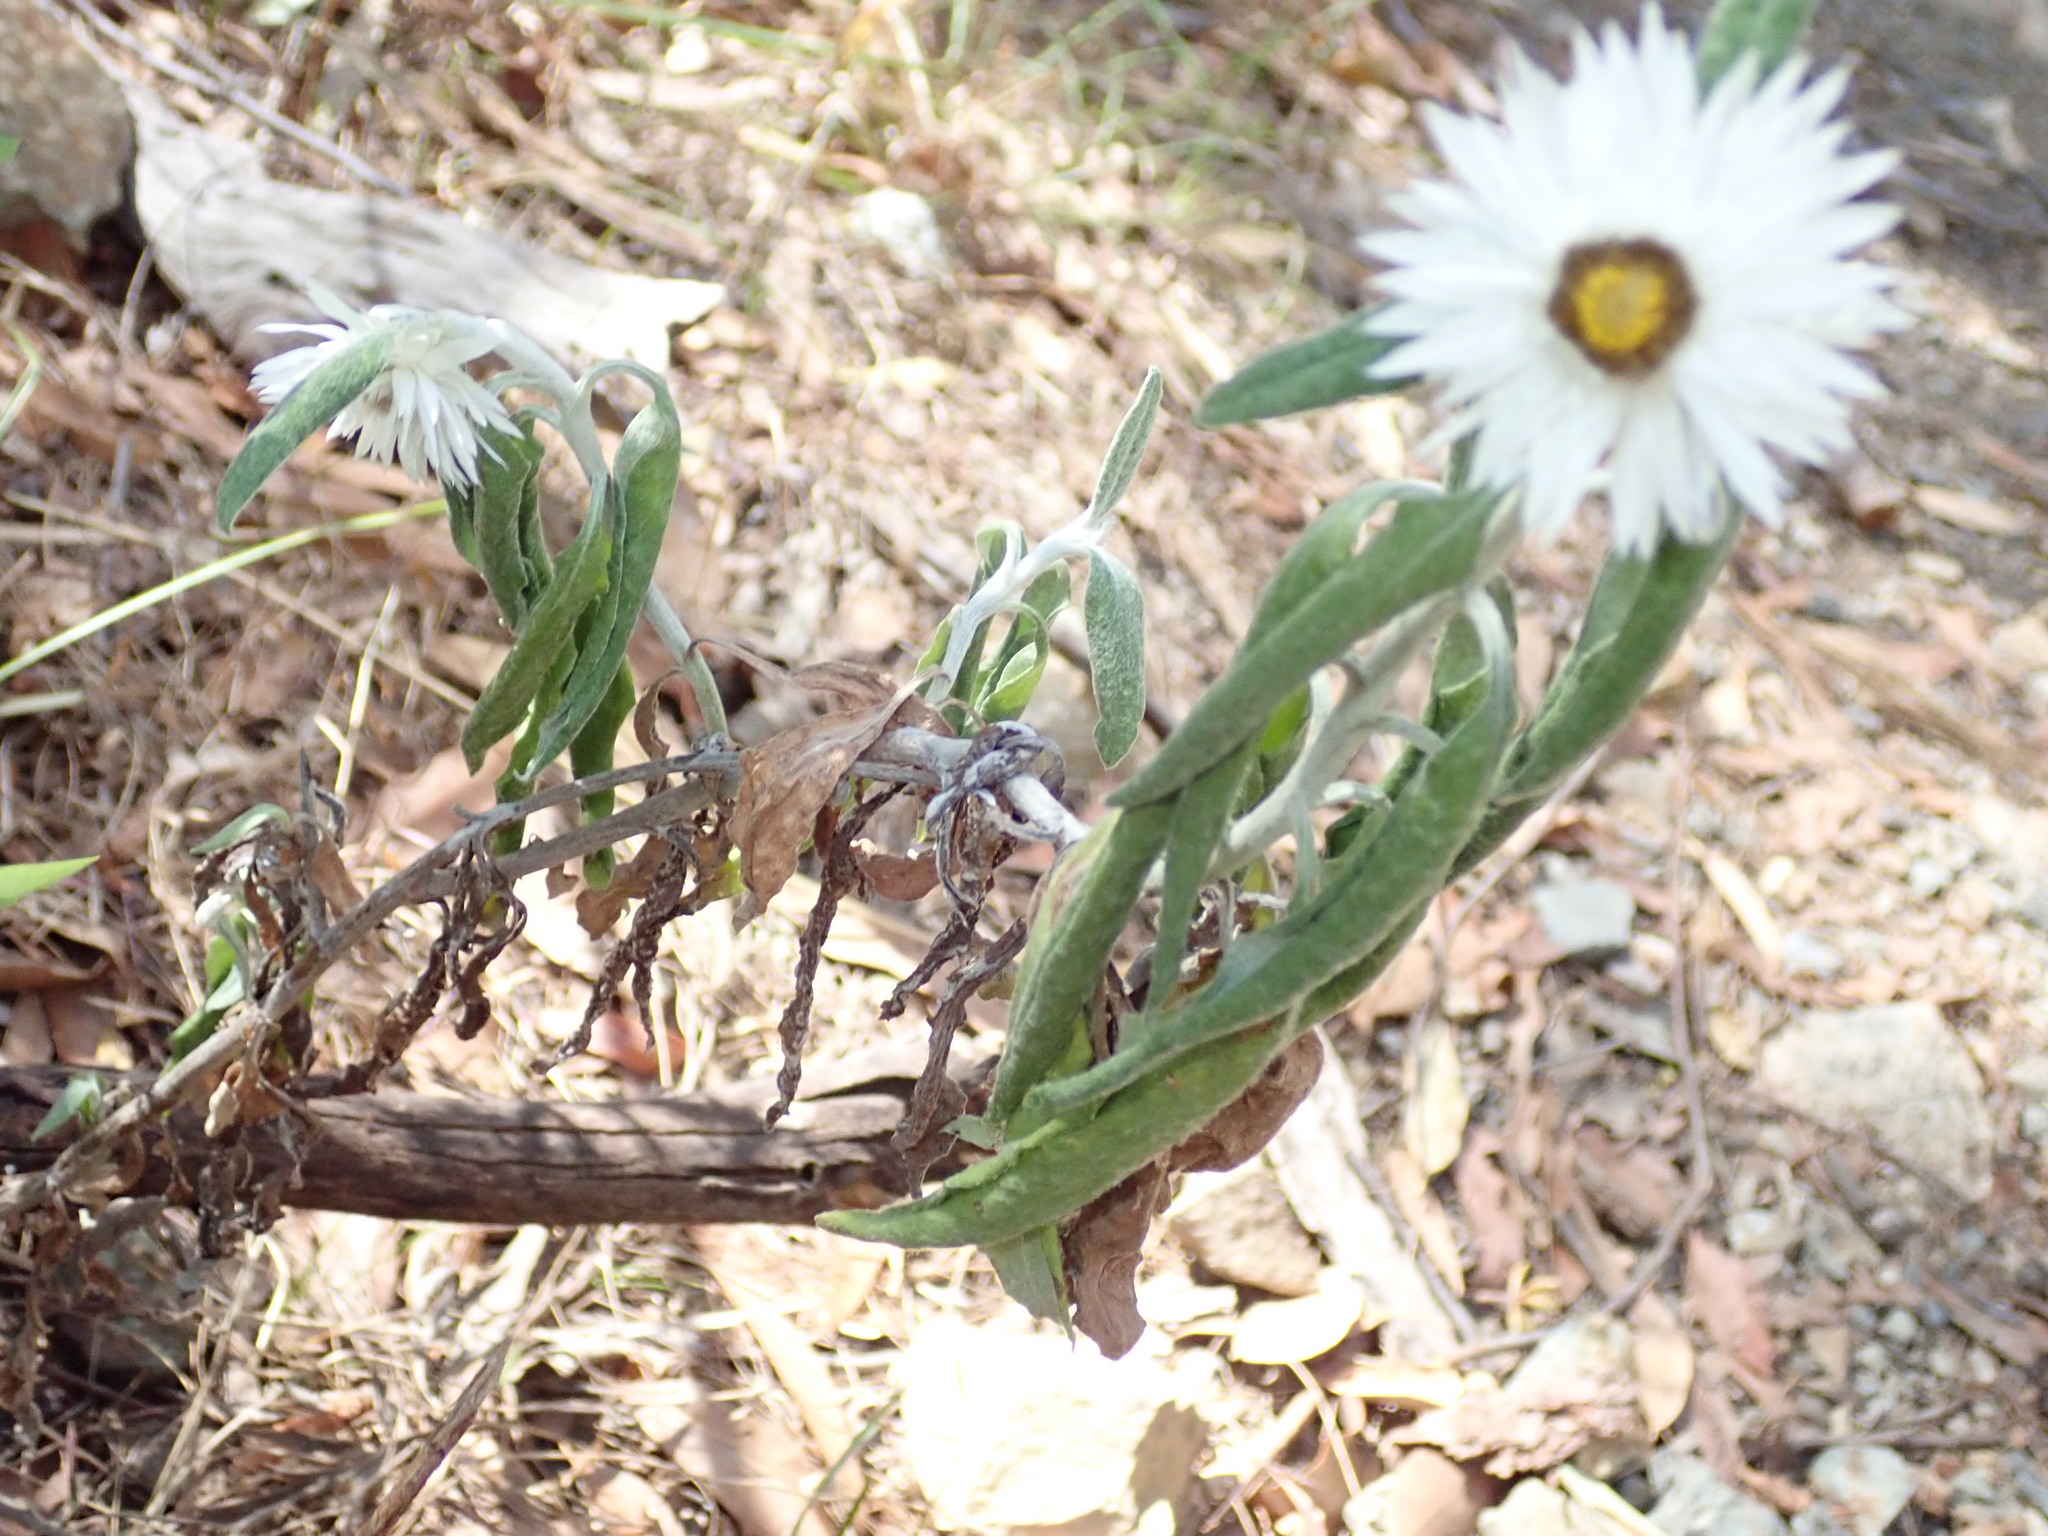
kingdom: Plantae
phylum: Tracheophyta
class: Magnoliopsida
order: Asterales
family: Asteraceae
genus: Leucozoma
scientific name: Leucozoma elatum
